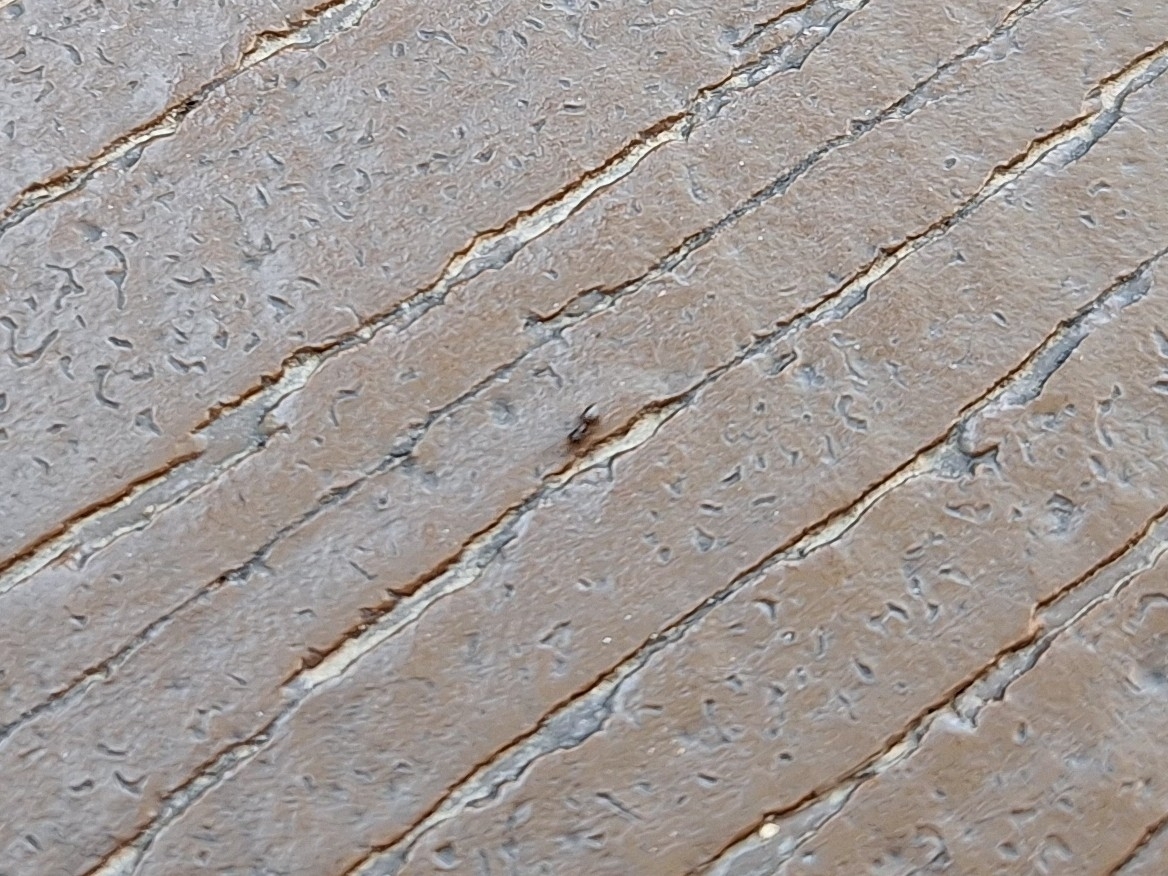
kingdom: Animalia
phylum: Arthropoda
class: Insecta
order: Hymenoptera
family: Formicidae
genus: Brachymyrmex
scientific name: Brachymyrmex patagonicus
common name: Dark rover ant
